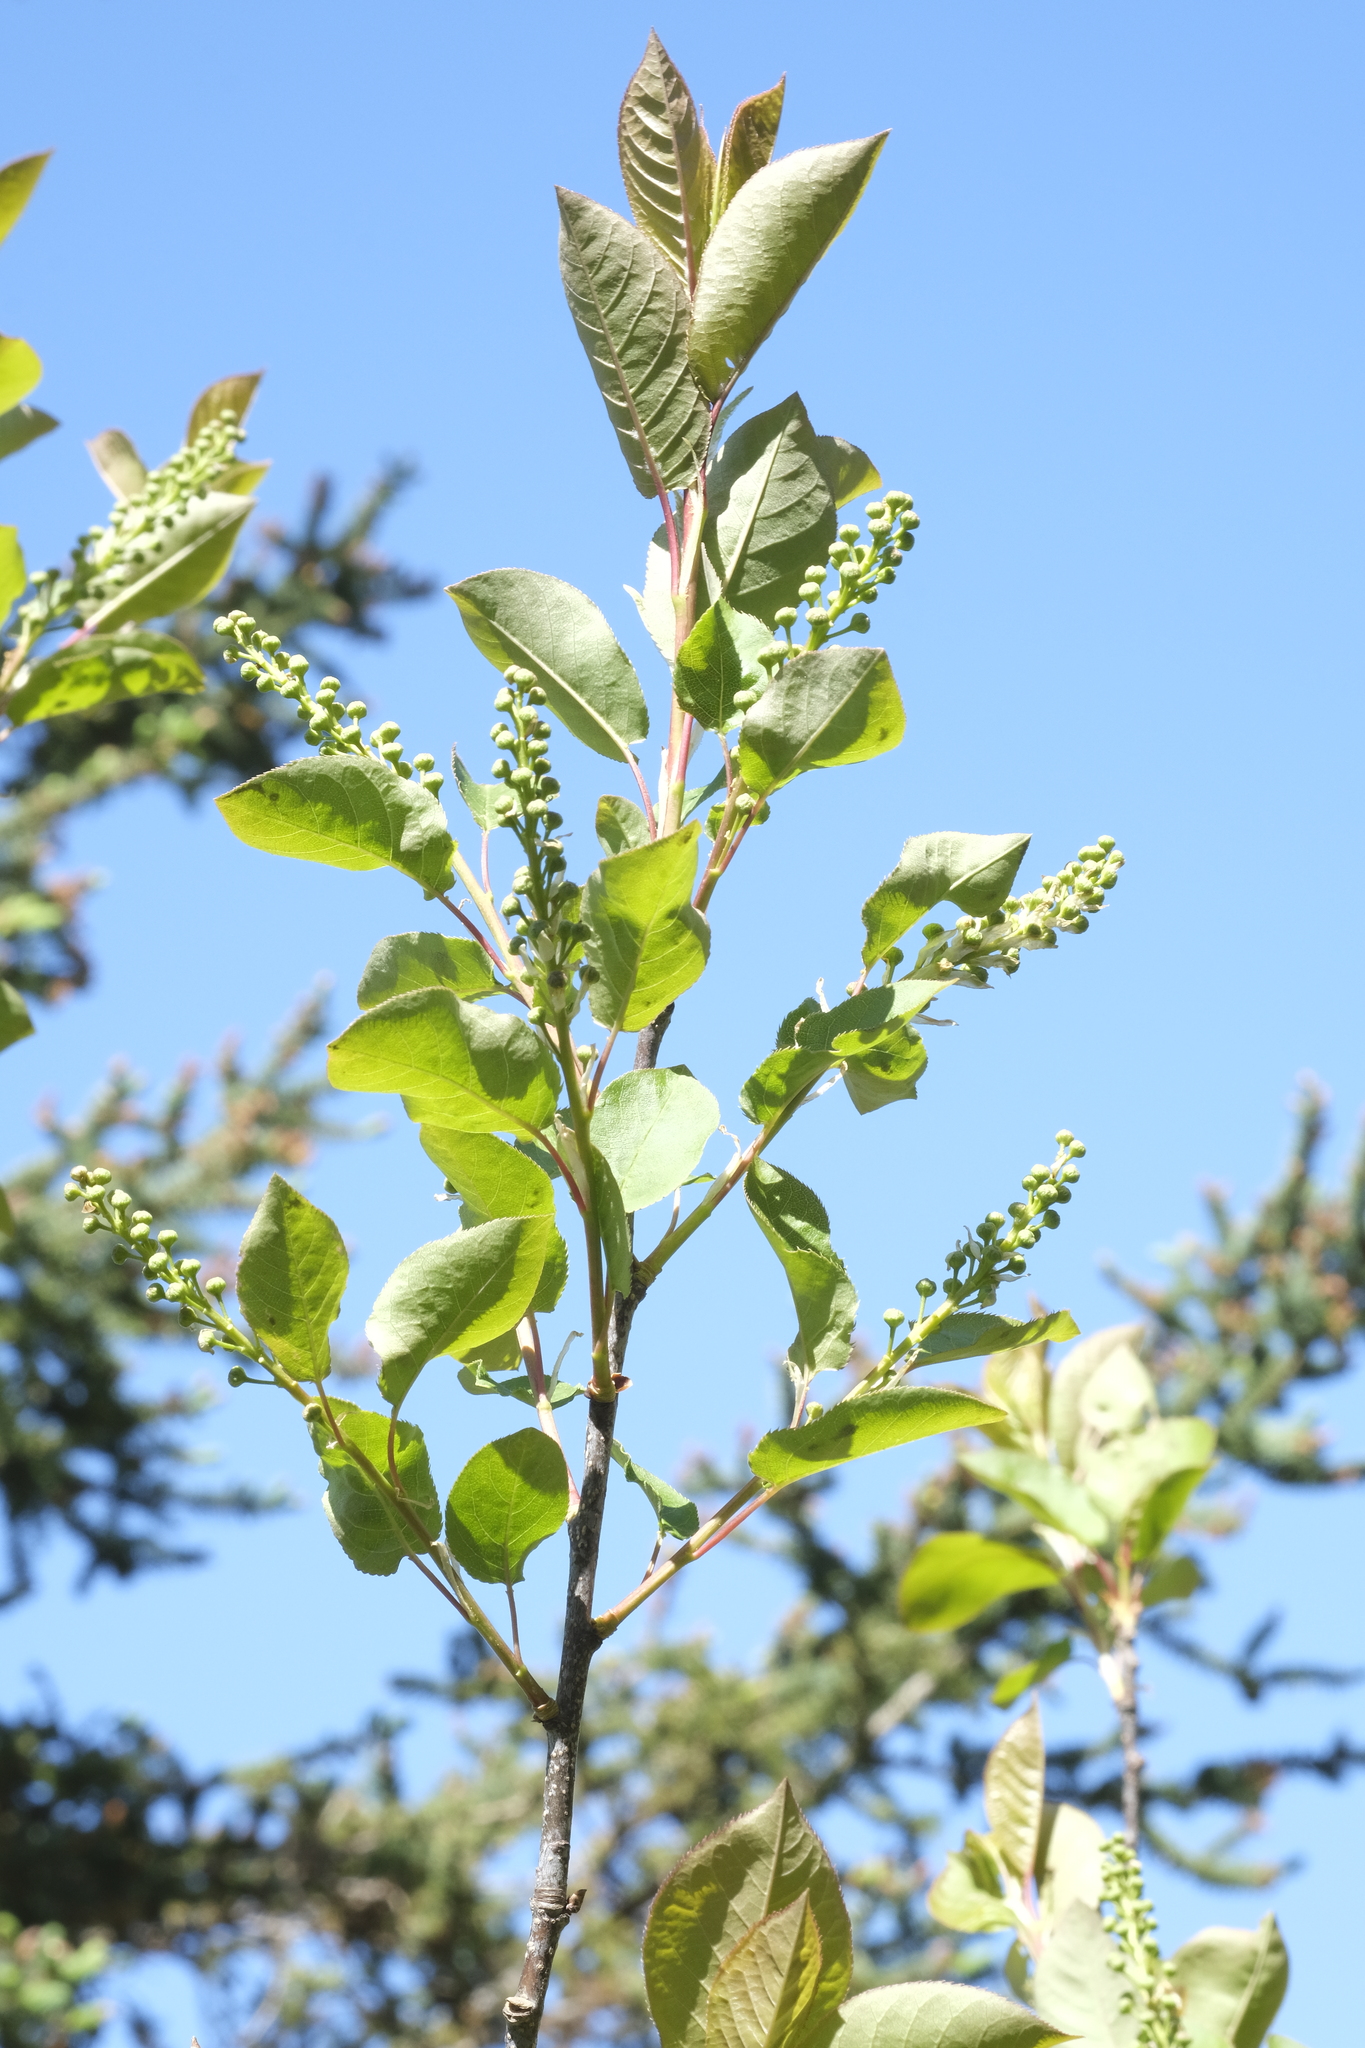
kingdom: Plantae
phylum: Tracheophyta
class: Magnoliopsida
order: Rosales
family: Rosaceae
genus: Prunus
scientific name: Prunus virginiana
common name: Chokecherry
